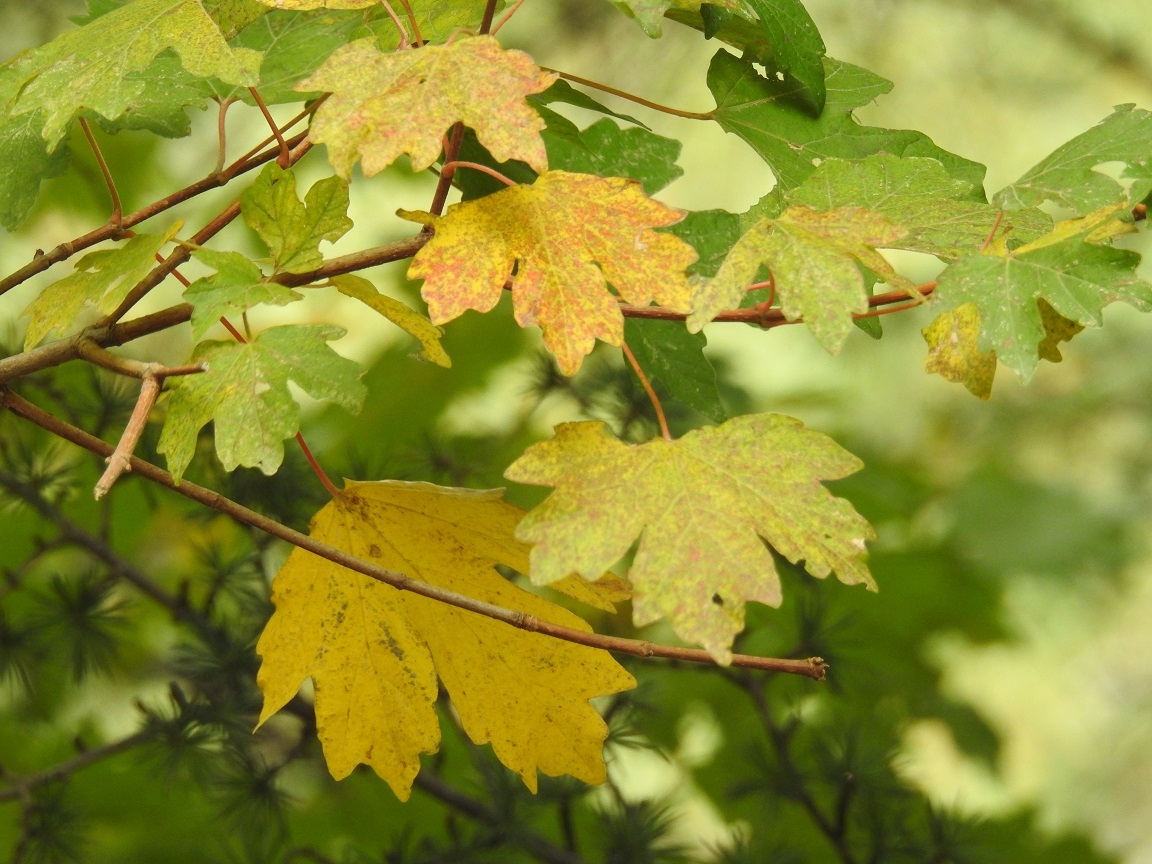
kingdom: Plantae
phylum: Tracheophyta
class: Magnoliopsida
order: Sapindales
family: Sapindaceae
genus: Acer
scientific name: Acer campestre
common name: Field maple
